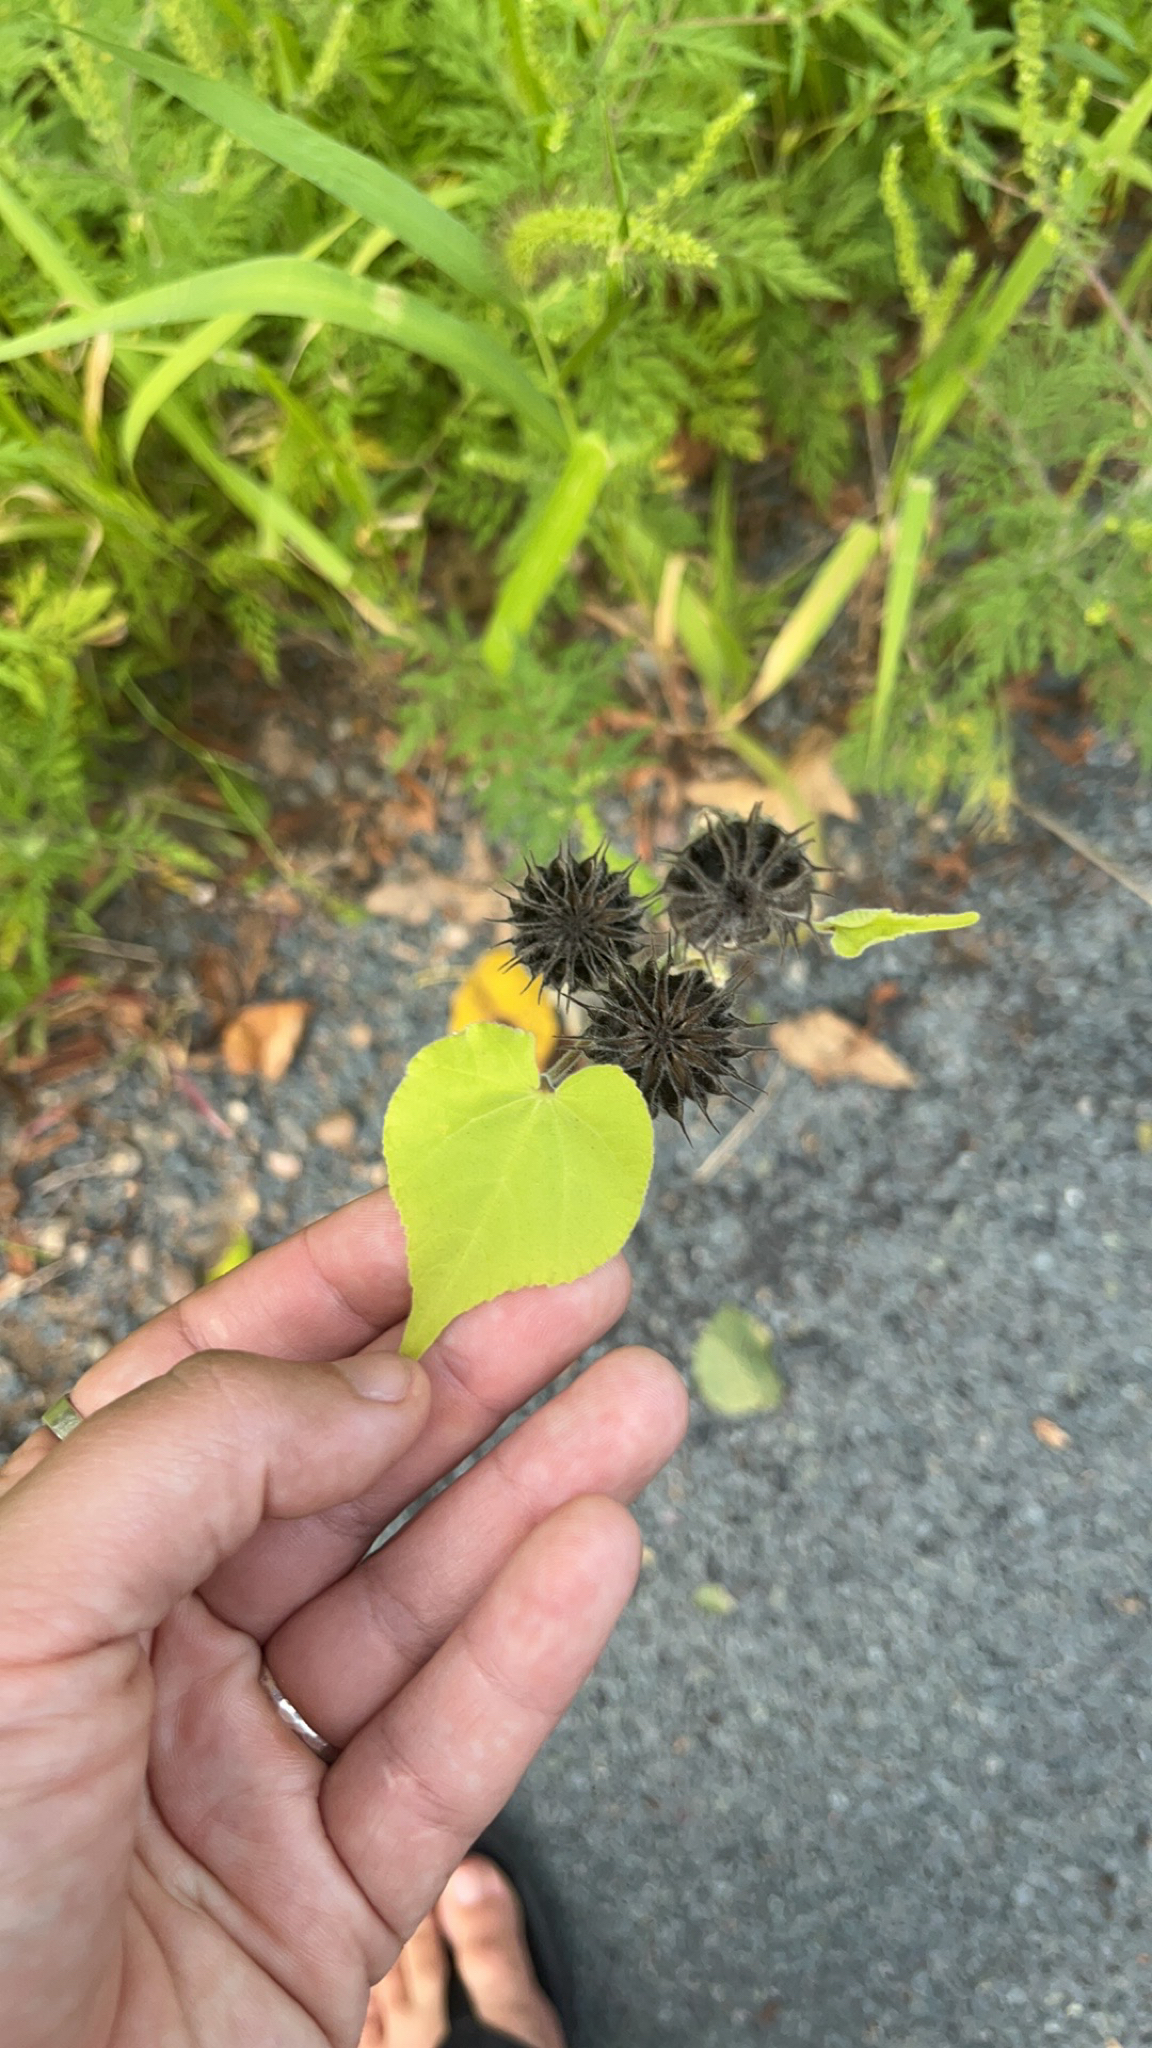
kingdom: Plantae
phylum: Tracheophyta
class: Magnoliopsida
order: Malvales
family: Malvaceae
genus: Abutilon
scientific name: Abutilon theophrasti
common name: Velvetleaf
